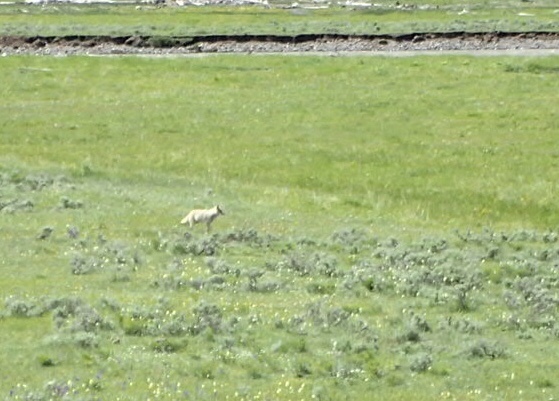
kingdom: Animalia
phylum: Chordata
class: Mammalia
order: Carnivora
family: Canidae
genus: Canis
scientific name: Canis latrans
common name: Coyote
